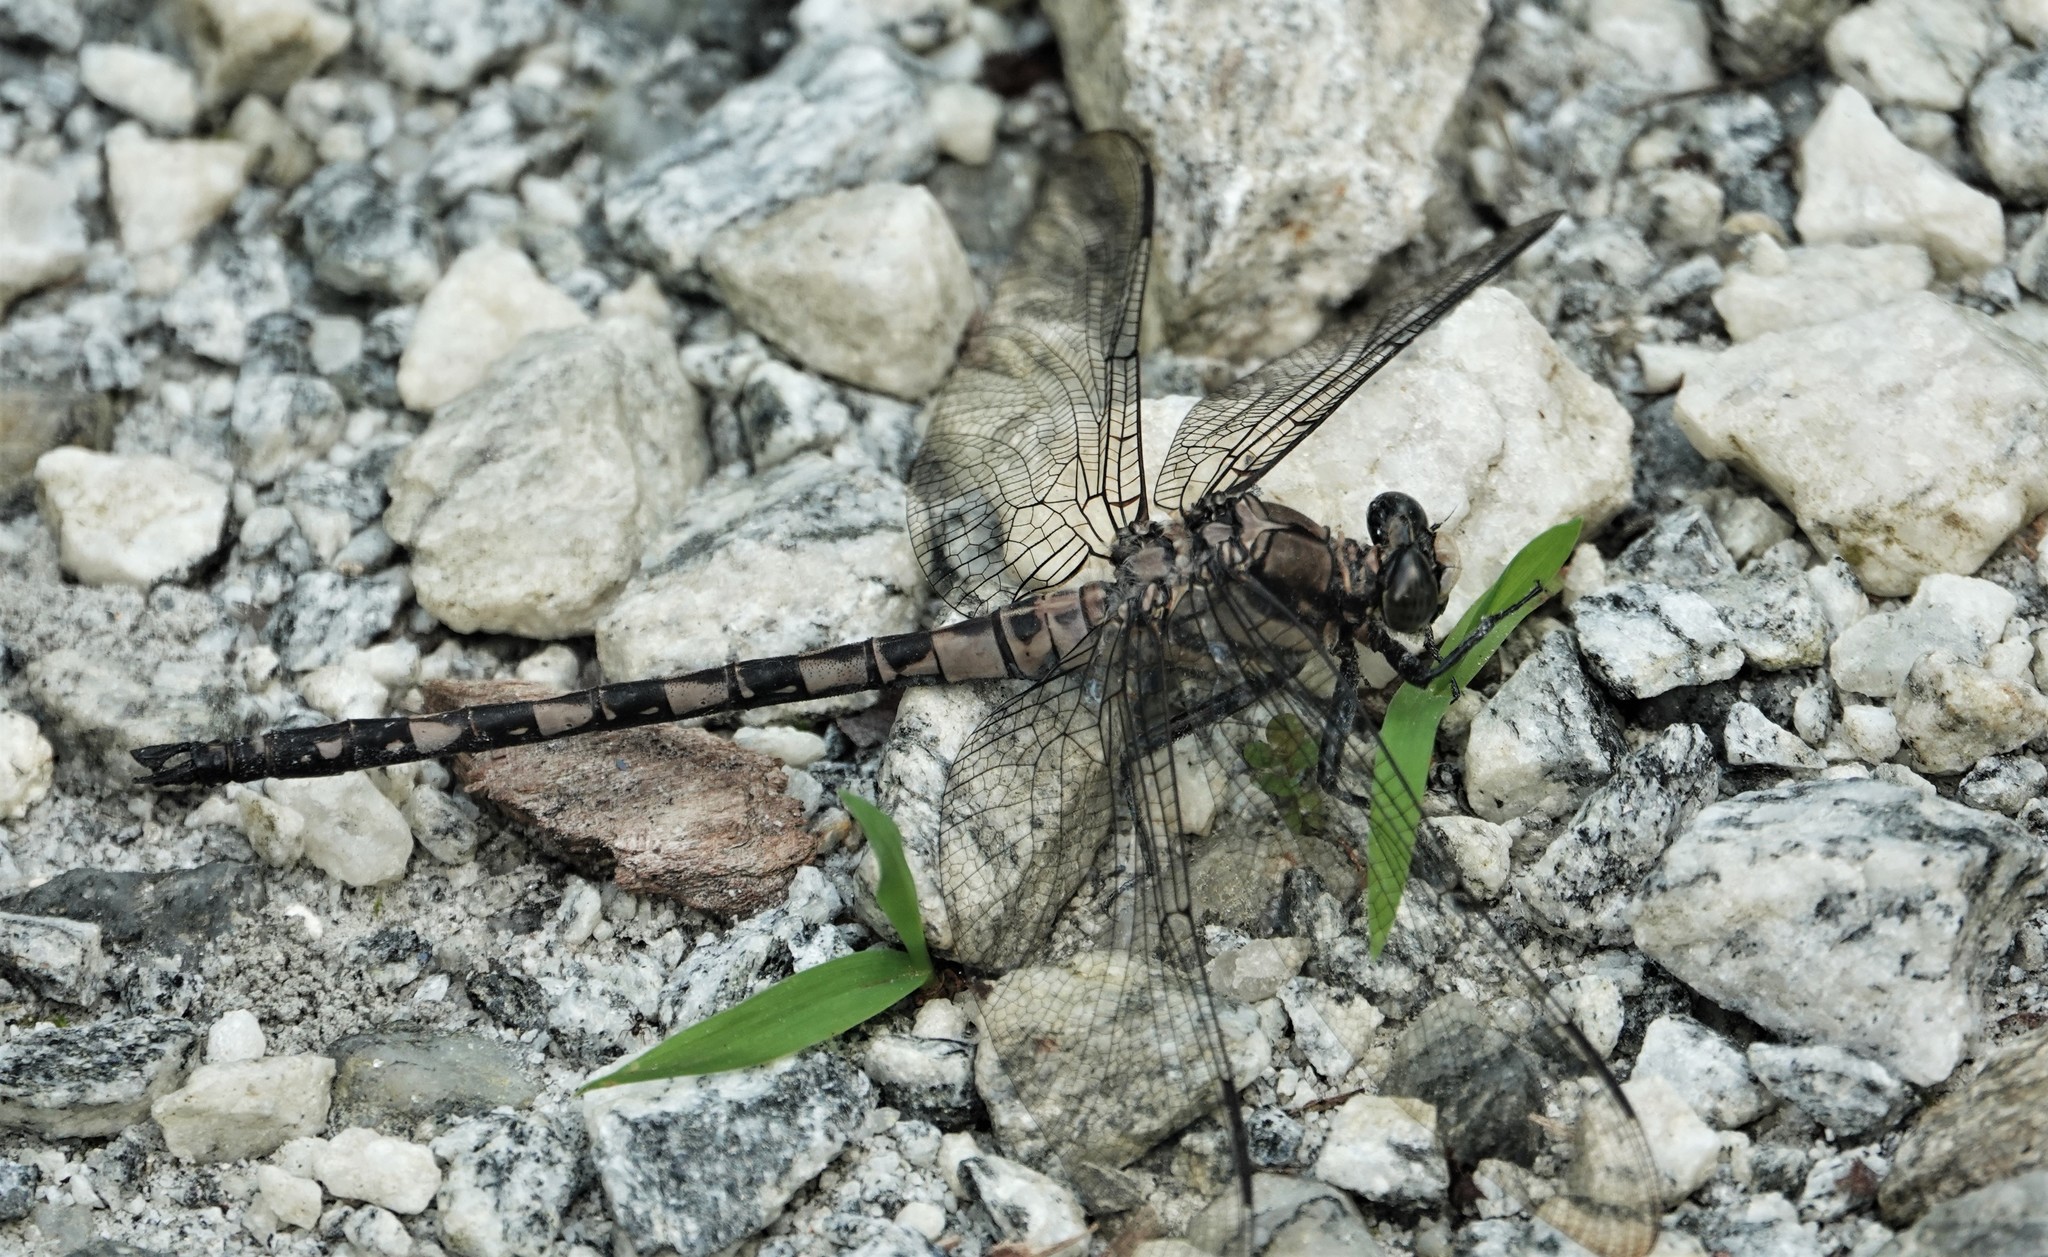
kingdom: Animalia
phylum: Arthropoda
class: Insecta
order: Odonata
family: Petaluridae
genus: Tachopteryx
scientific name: Tachopteryx thoreyi
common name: Gray petaltail
